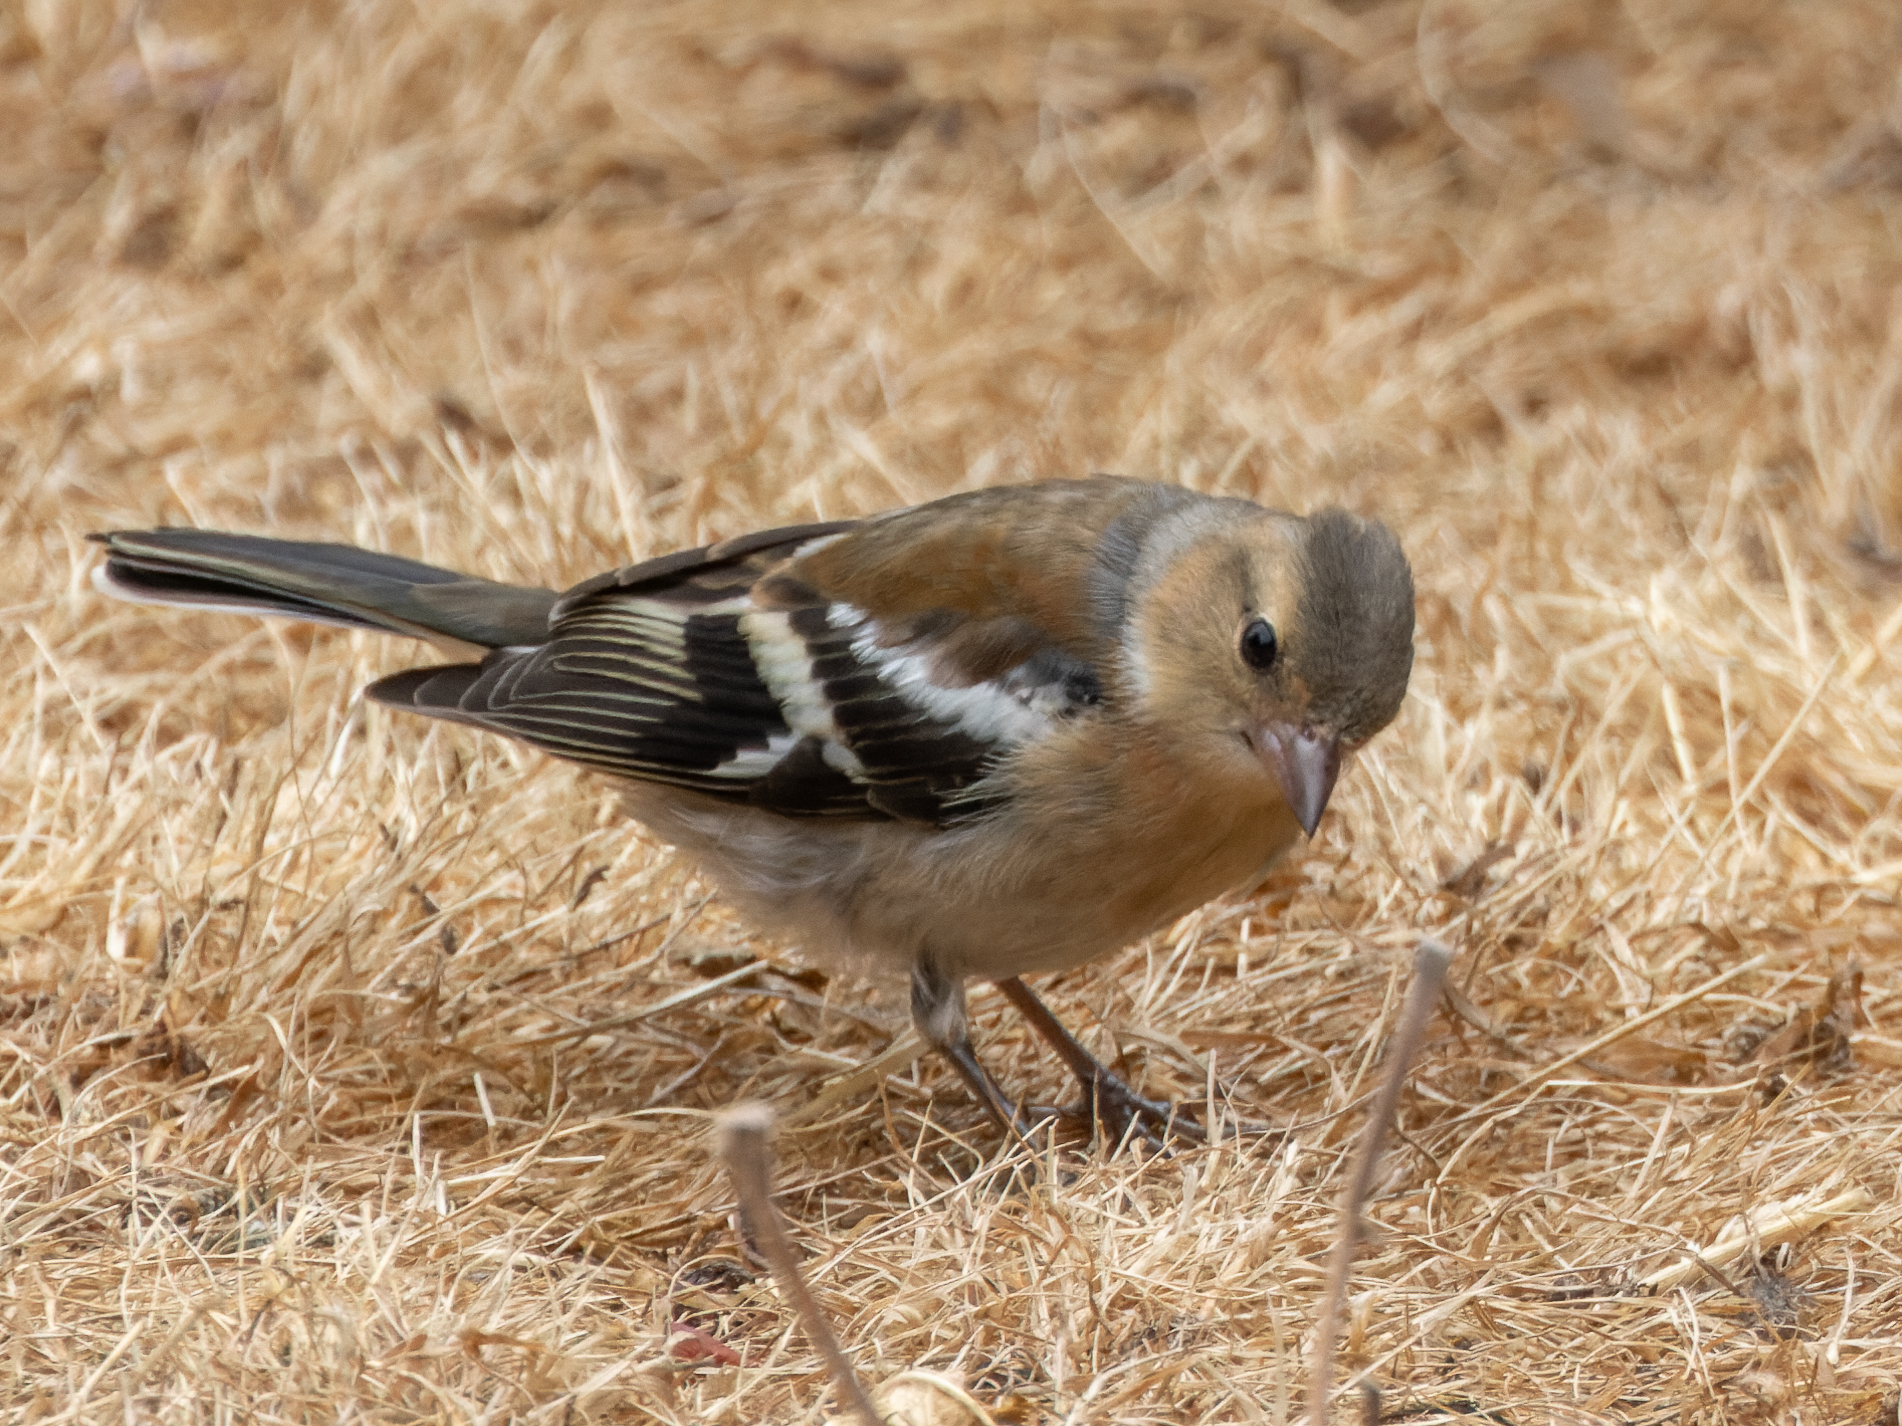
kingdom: Animalia
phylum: Chordata
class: Aves
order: Passeriformes
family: Fringillidae
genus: Fringilla
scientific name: Fringilla coelebs
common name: Common chaffinch
